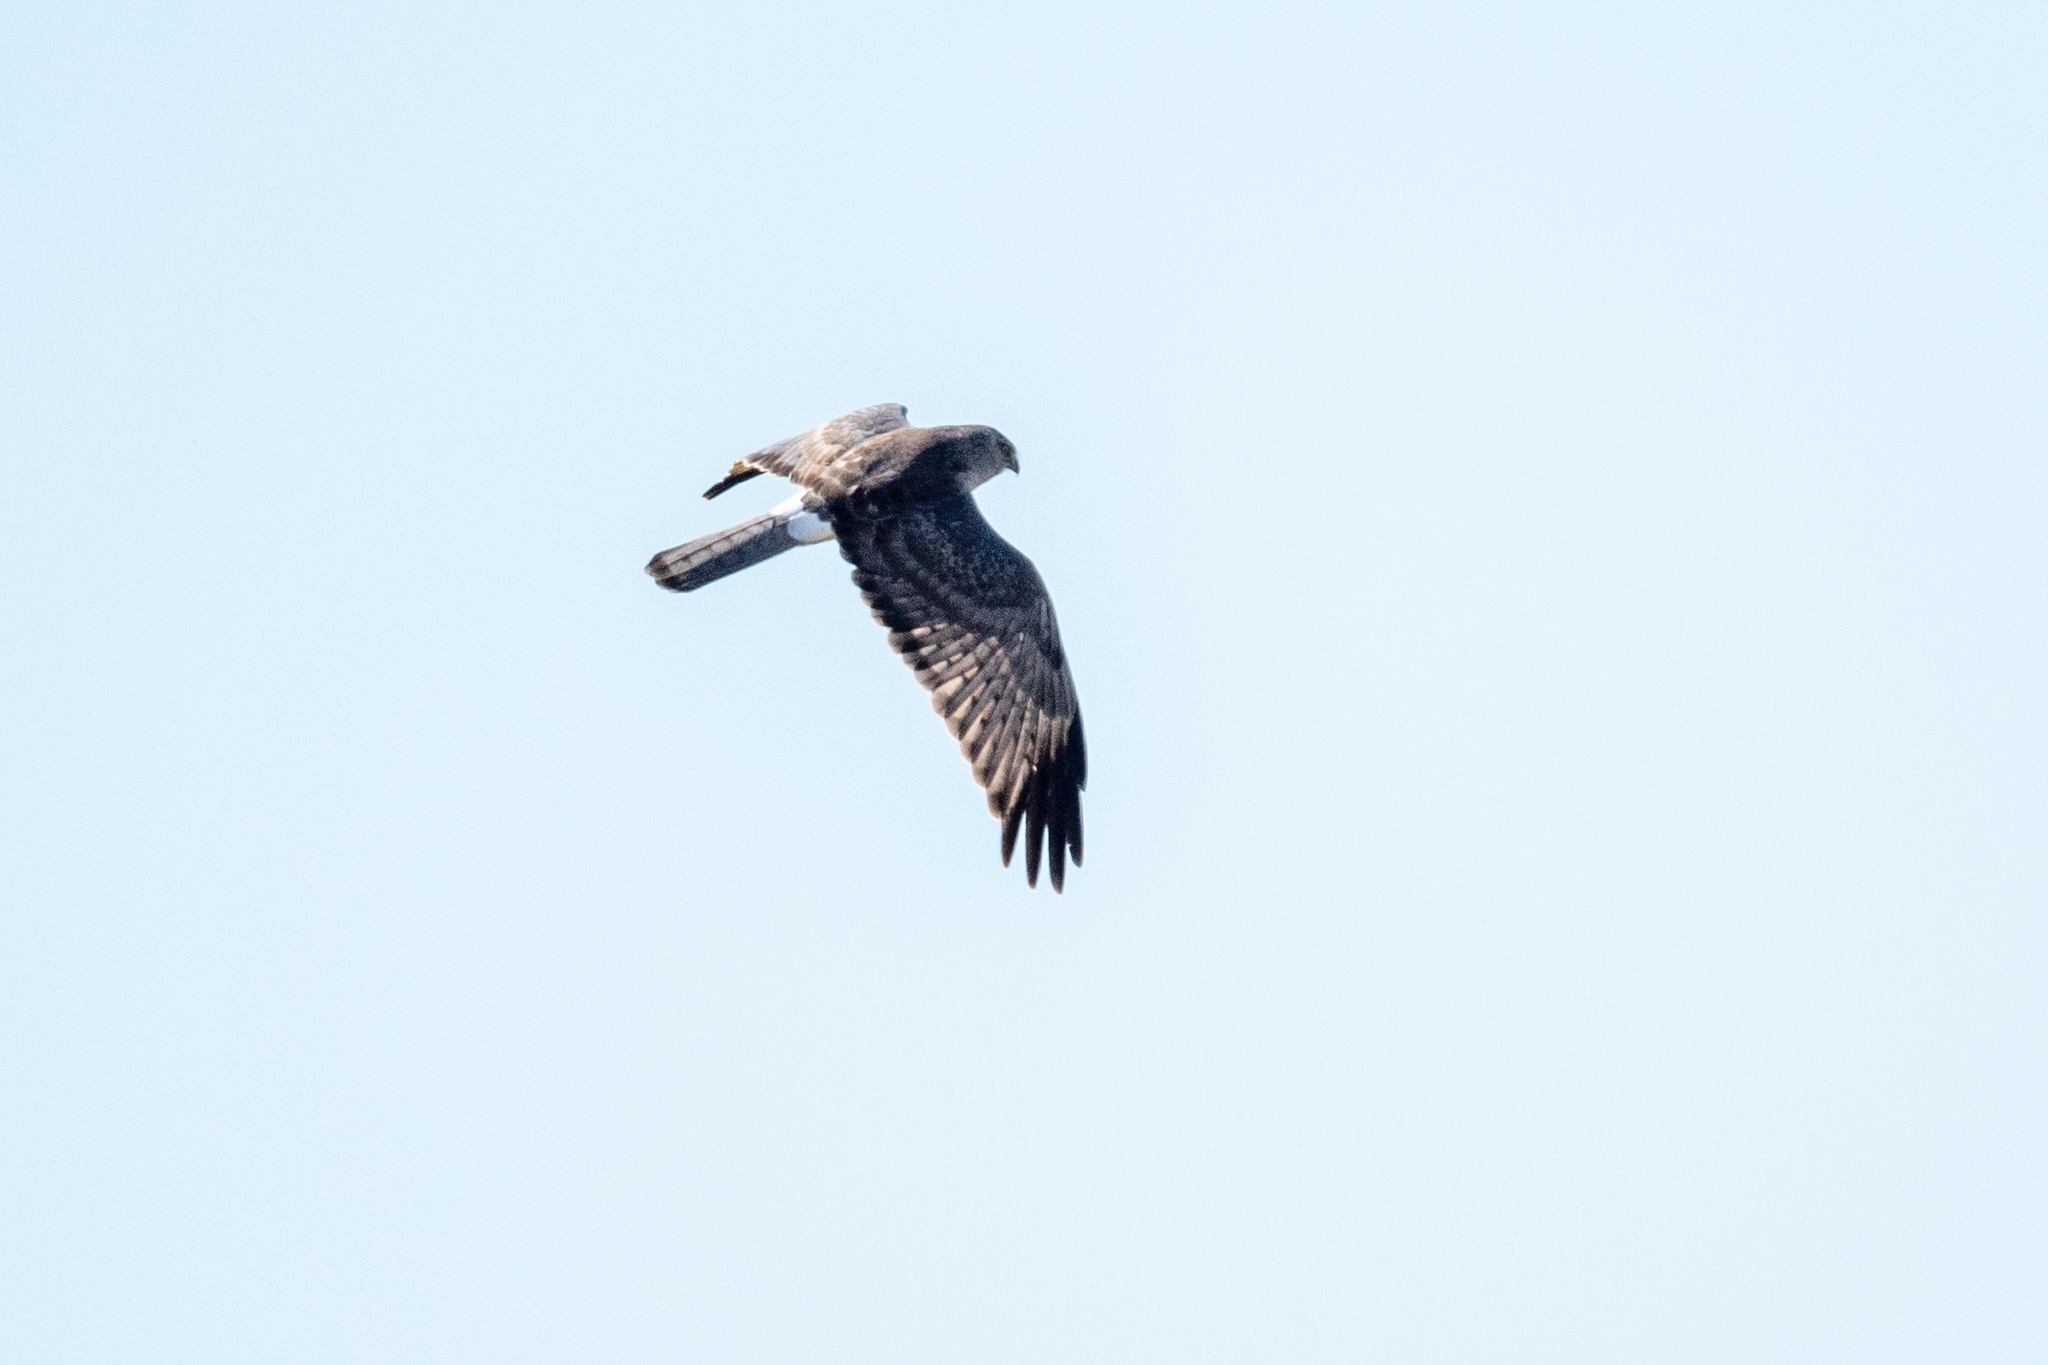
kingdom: Animalia
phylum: Chordata
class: Aves
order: Accipitriformes
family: Accipitridae
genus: Circus
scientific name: Circus cyaneus
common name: Hen harrier
